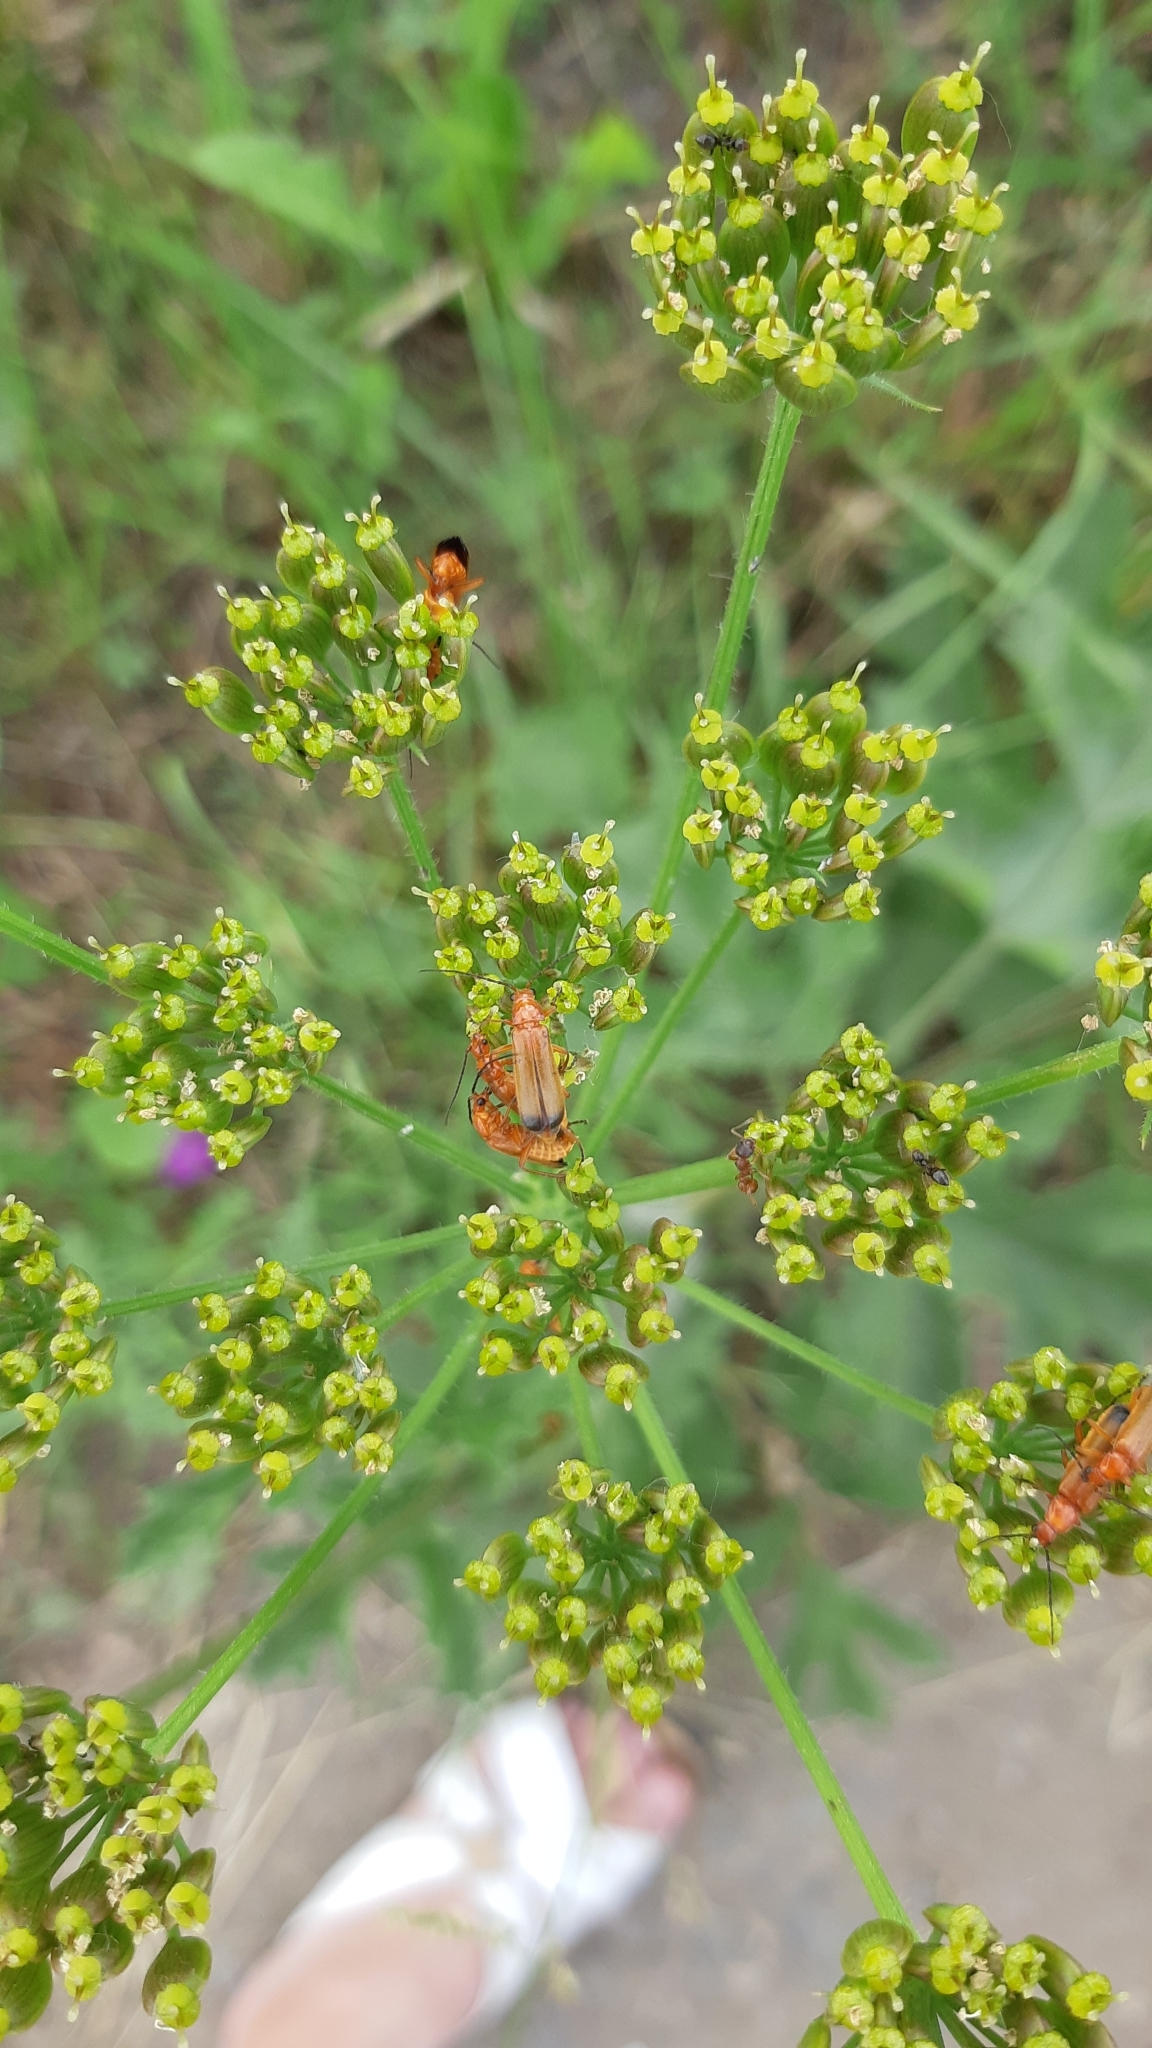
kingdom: Animalia
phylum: Arthropoda
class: Insecta
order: Coleoptera
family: Cantharidae
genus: Rhagonycha
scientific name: Rhagonycha fulva
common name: Common red soldier beetle
